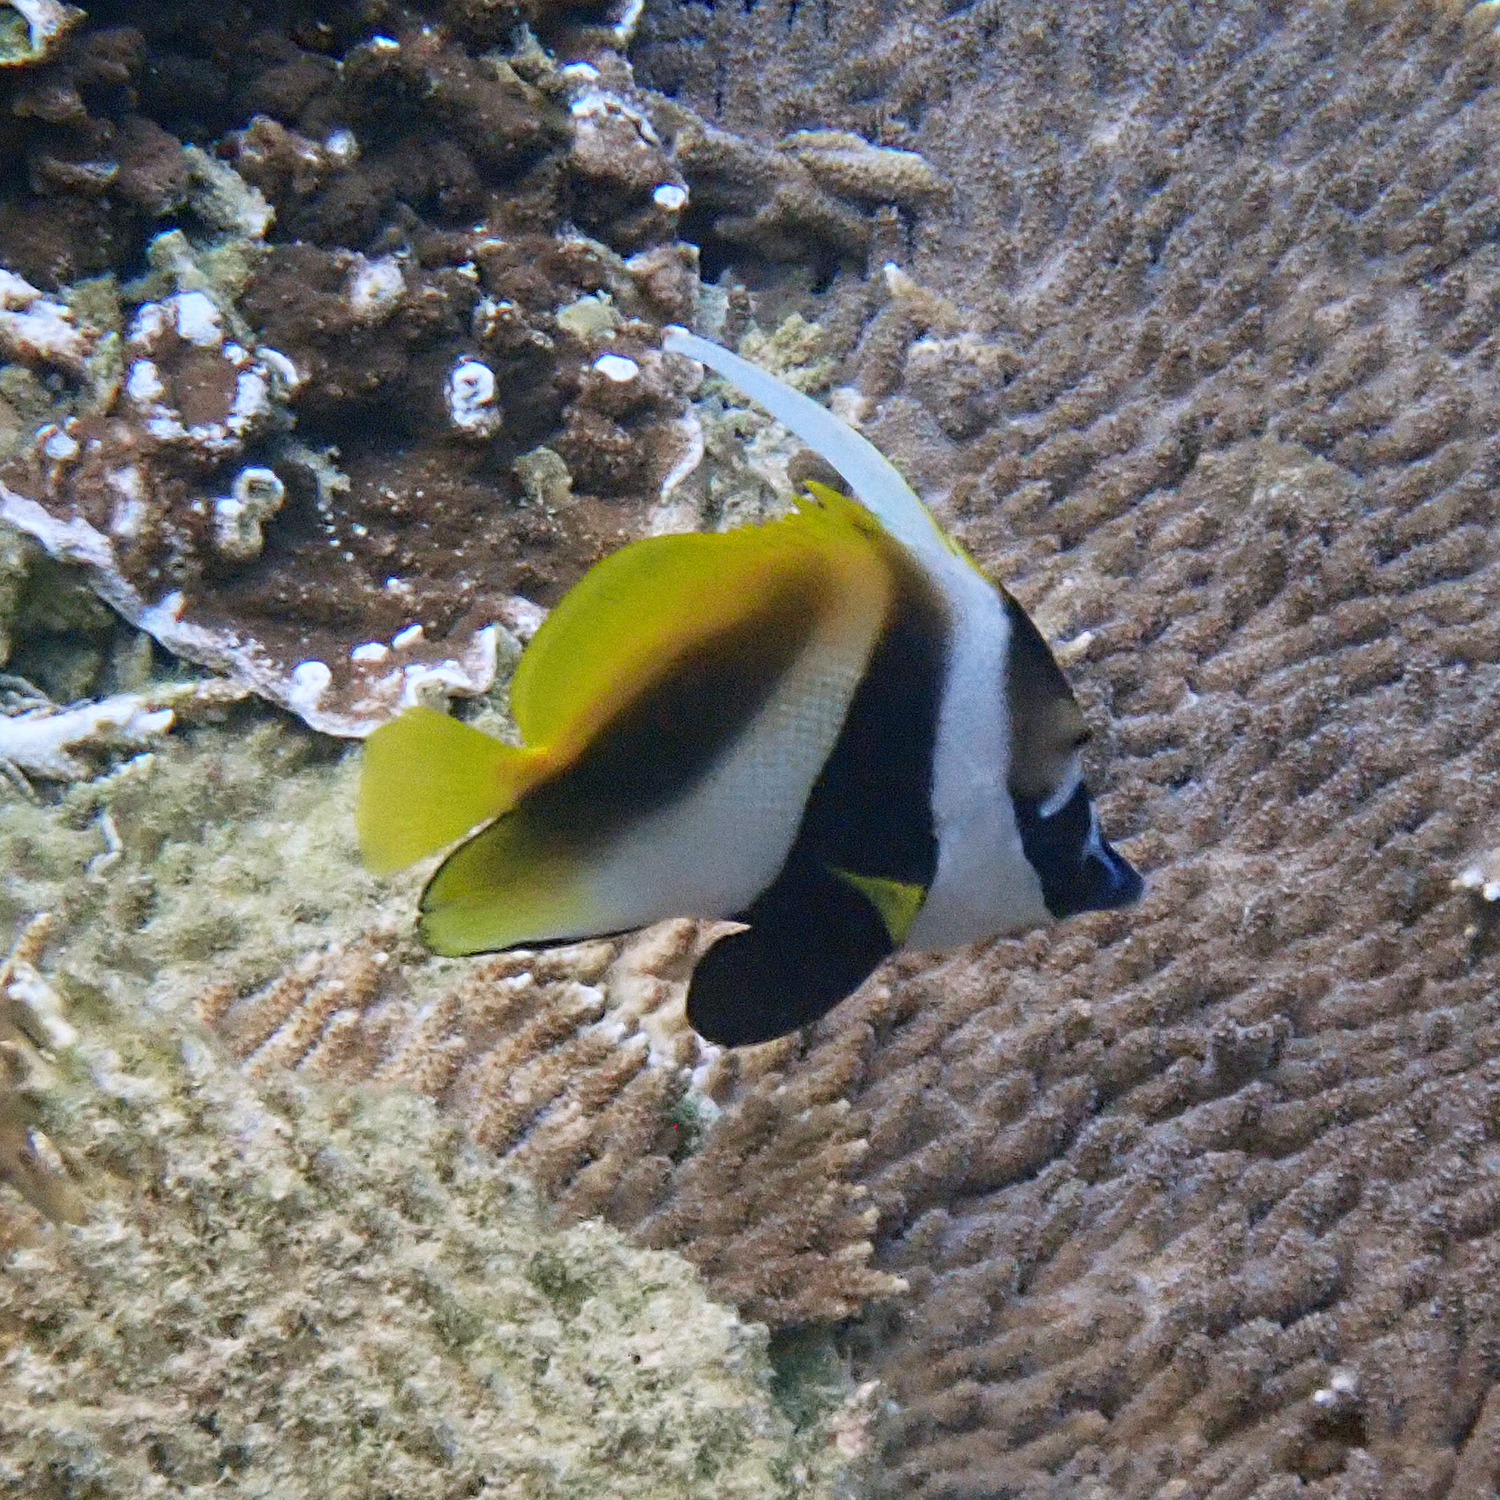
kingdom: Animalia
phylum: Chordata
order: Perciformes
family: Chaetodontidae
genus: Heniochus
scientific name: Heniochus monoceros
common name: Masked bannerfish
